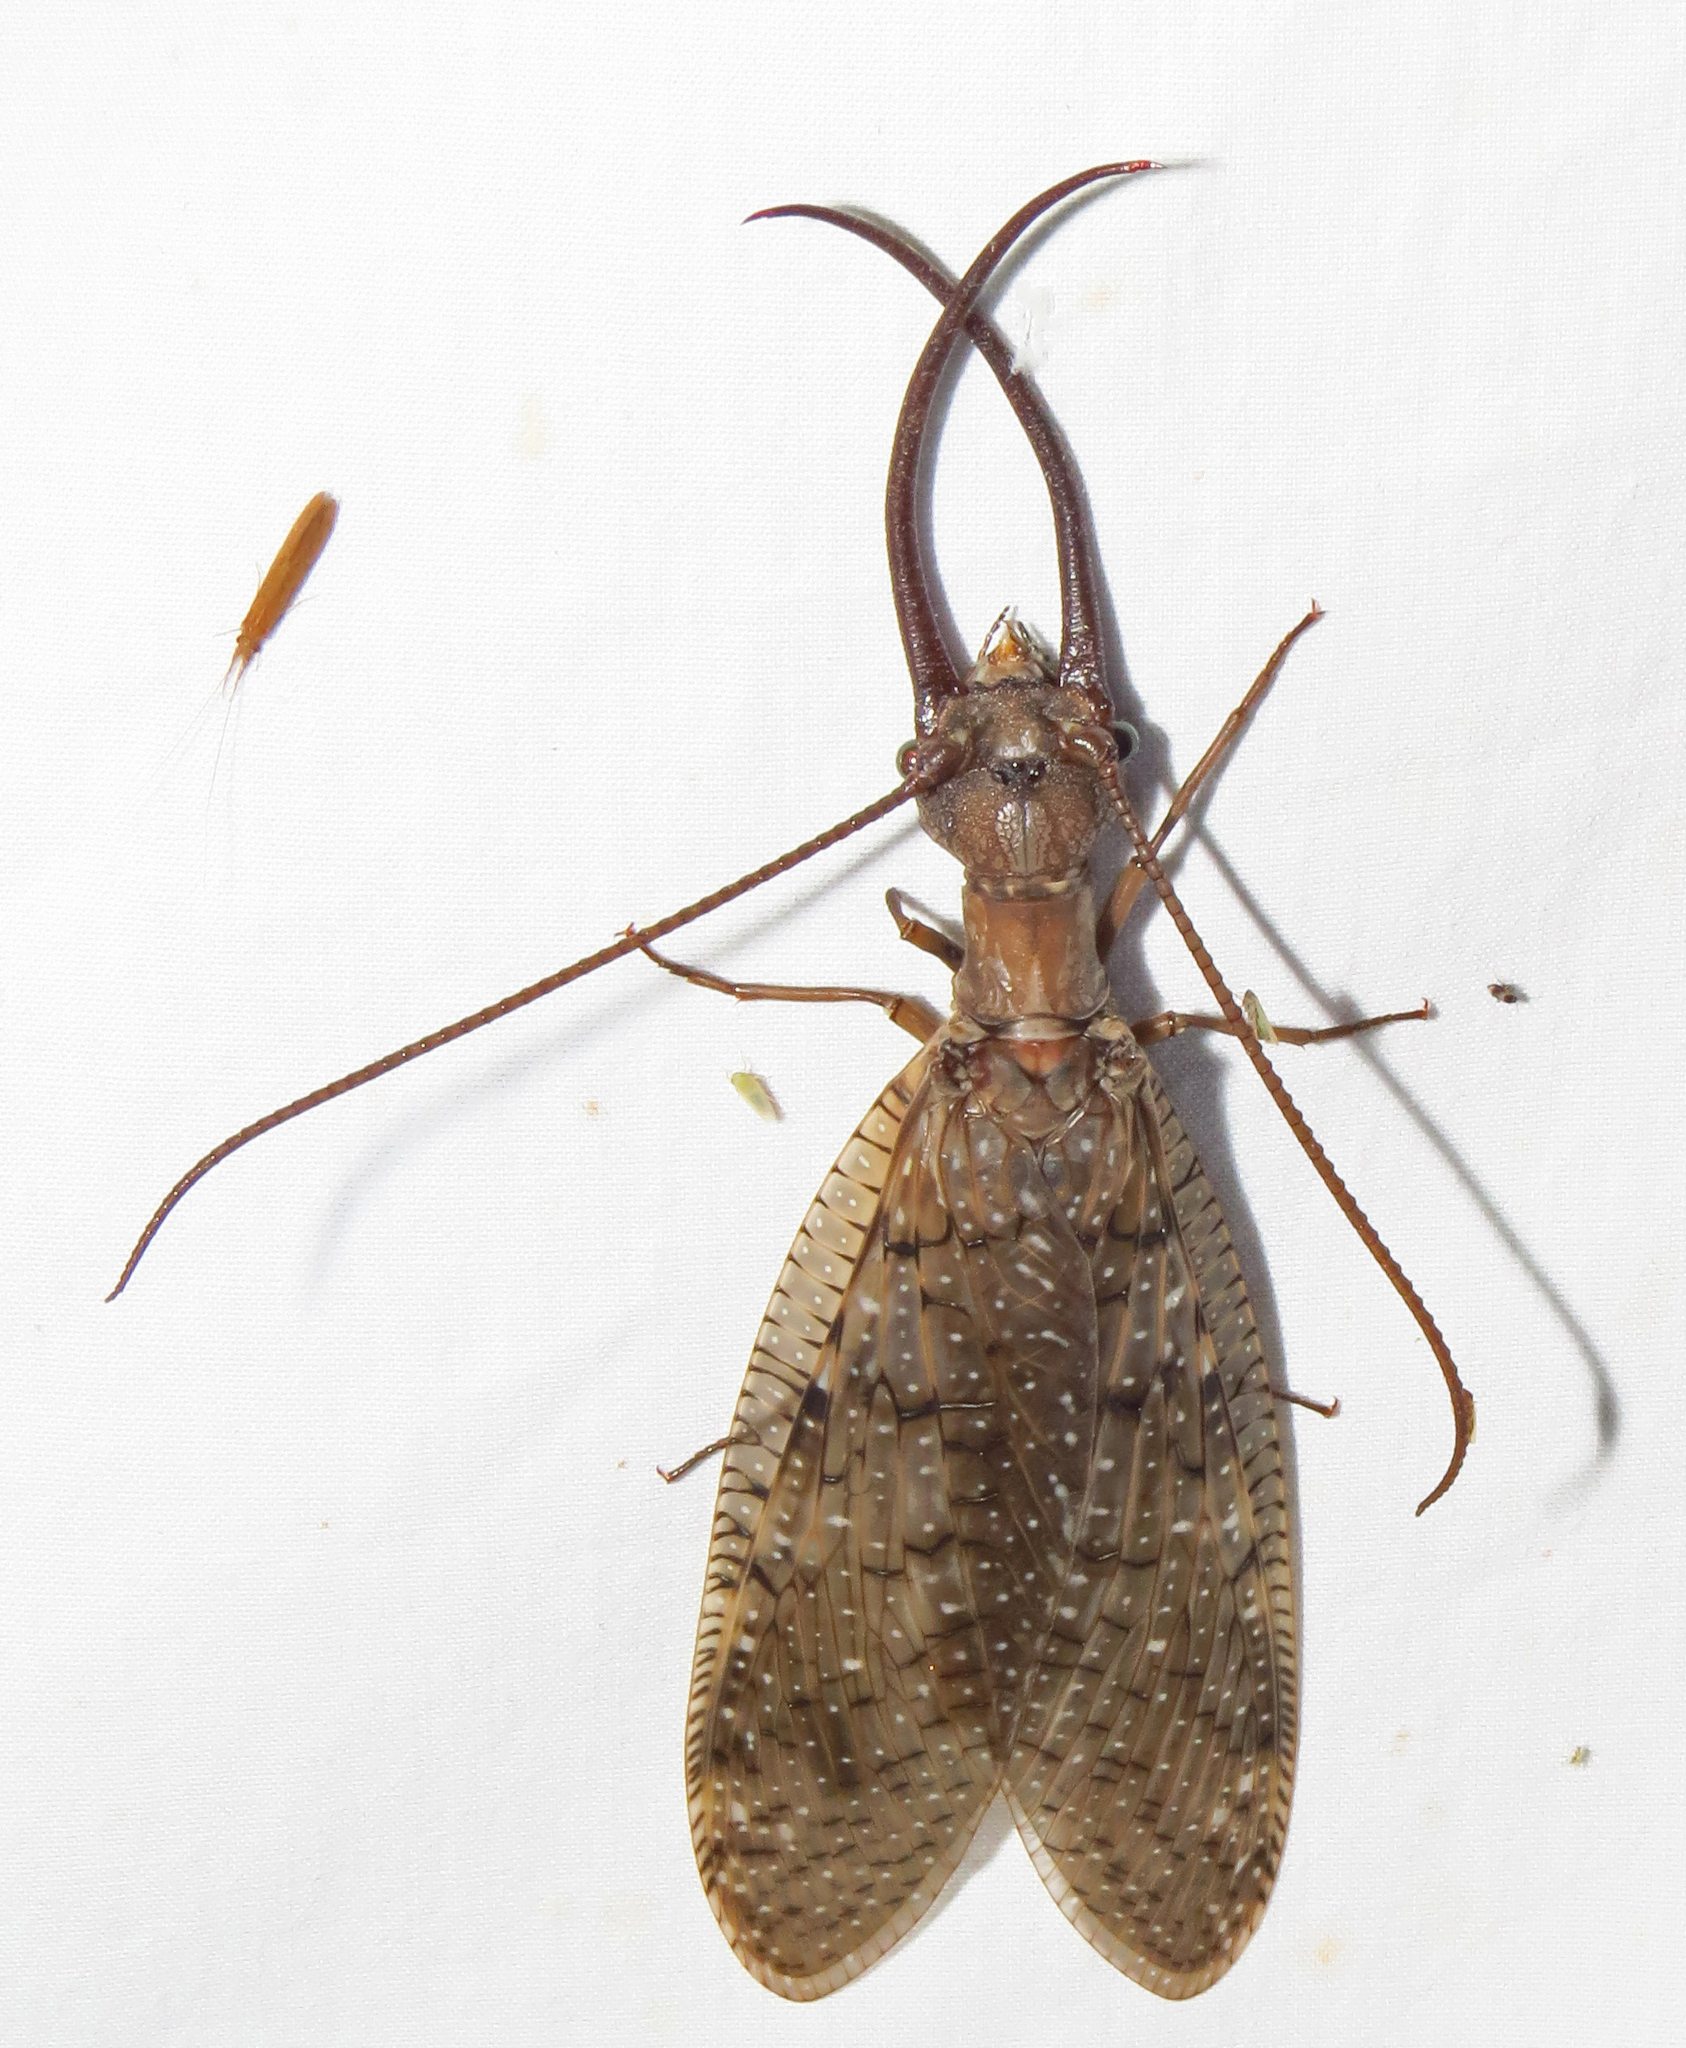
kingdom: Animalia
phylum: Arthropoda
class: Insecta
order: Megaloptera
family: Corydalidae
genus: Corydalus
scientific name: Corydalus cornutus
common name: Dobsonfly
